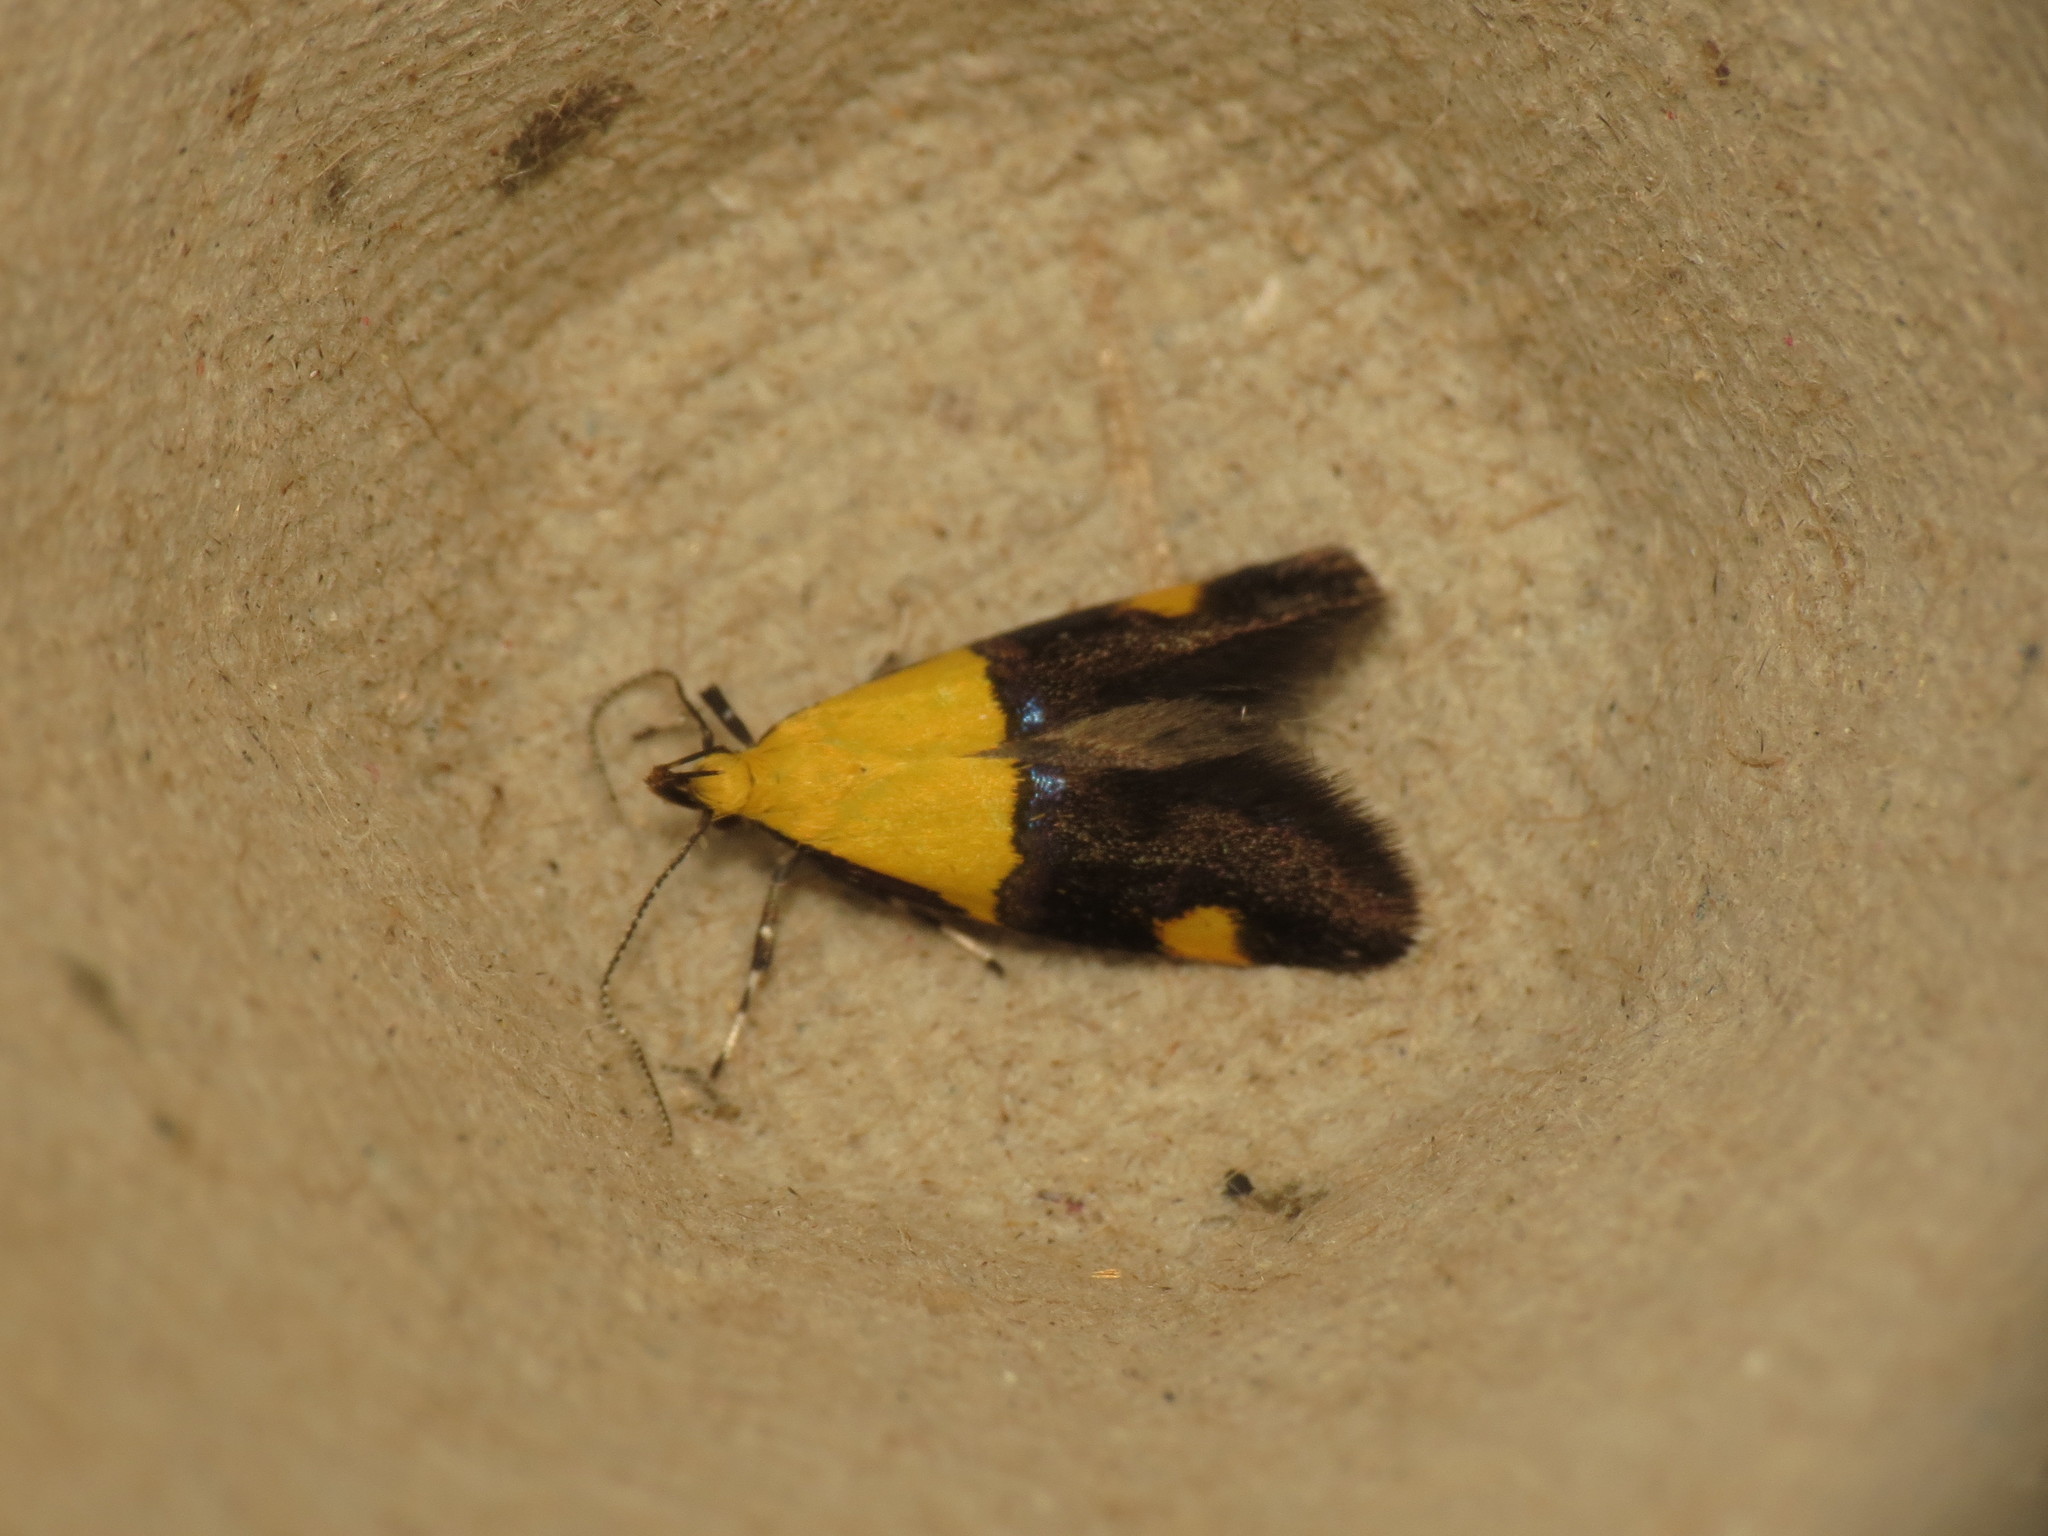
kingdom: Animalia
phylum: Arthropoda
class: Insecta
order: Lepidoptera
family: Oecophoridae
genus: Oecophora
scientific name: Oecophora bractella
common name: Gold-base tubic
